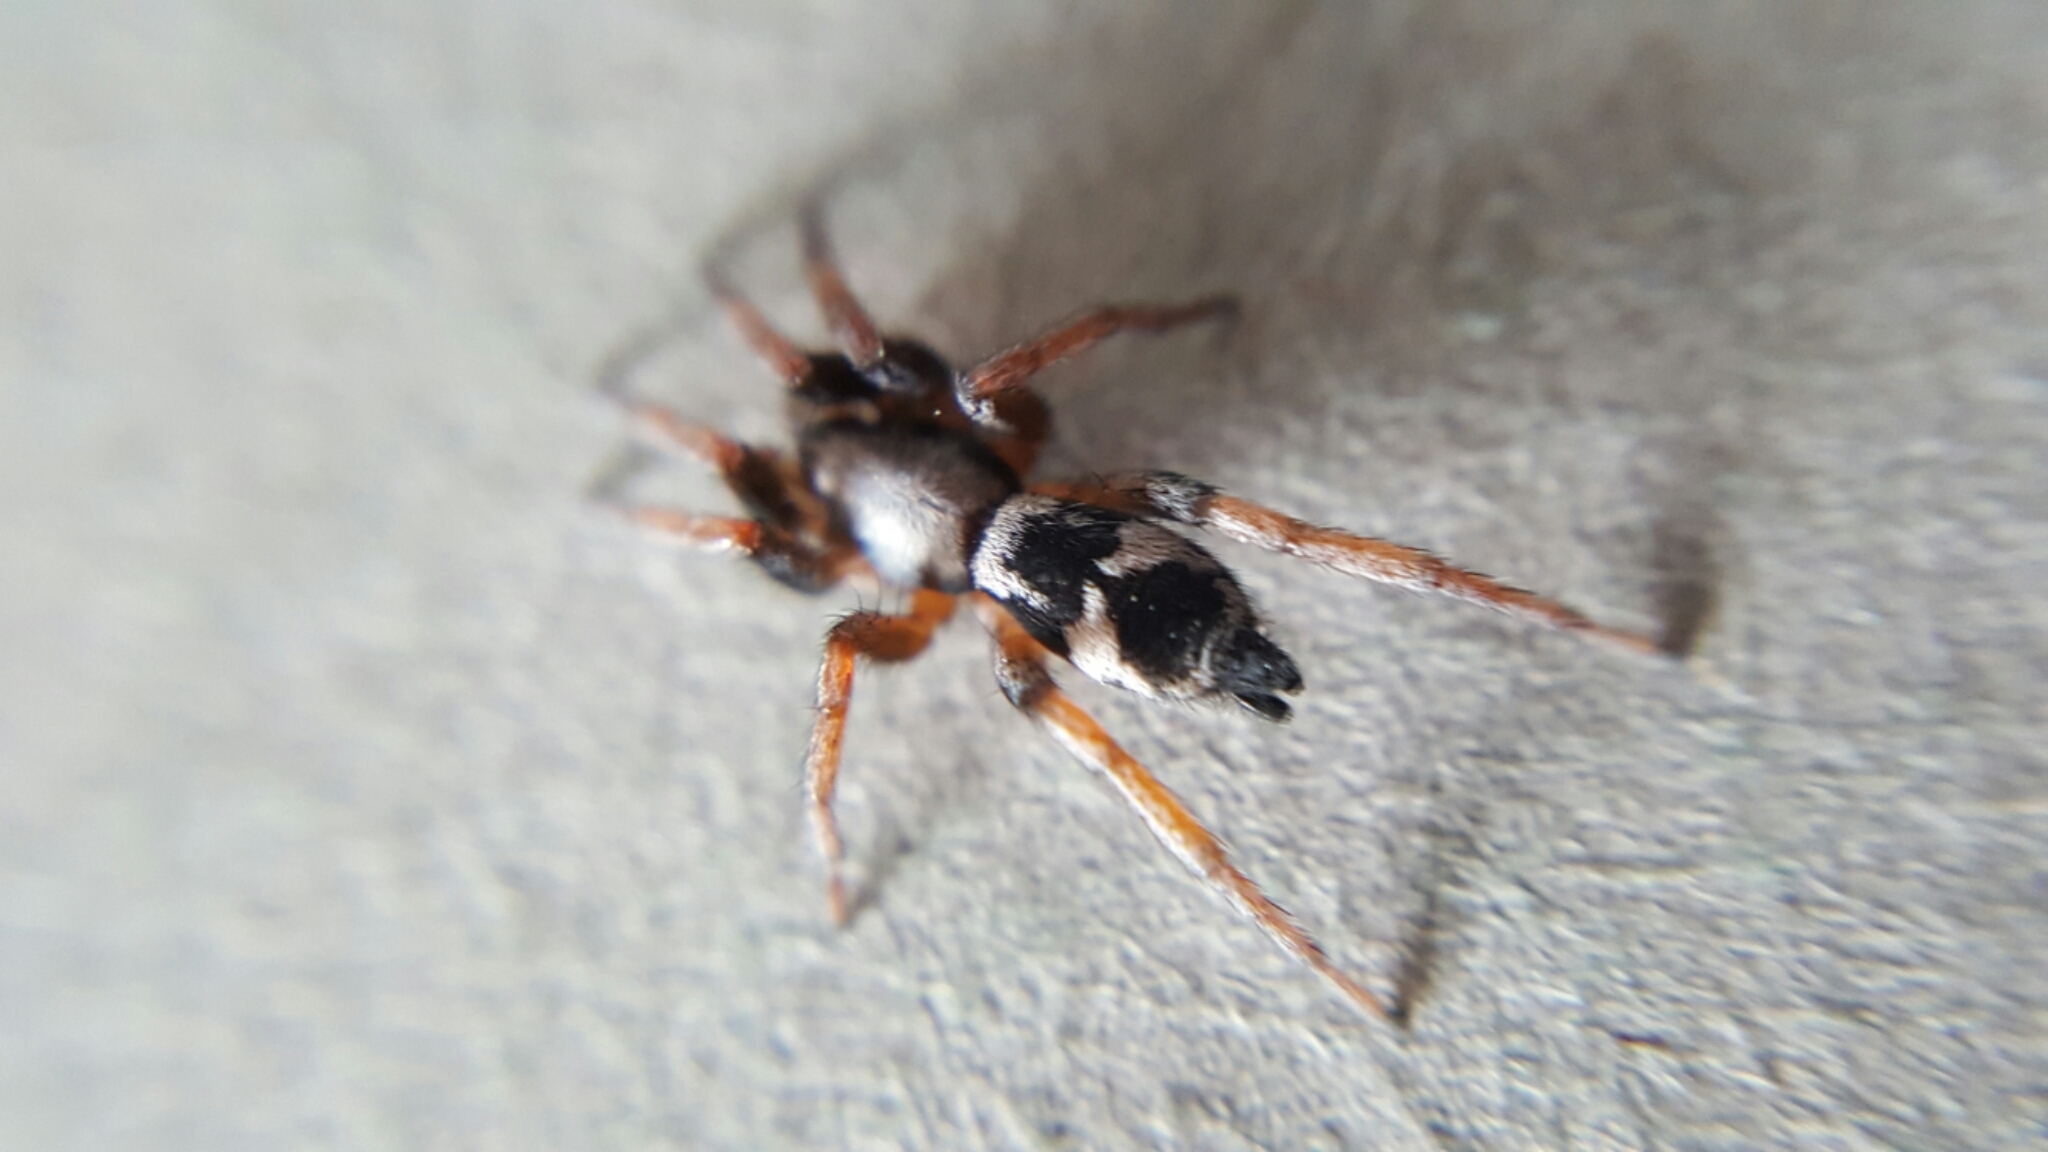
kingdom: Animalia
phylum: Arthropoda
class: Arachnida
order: Araneae
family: Gnaphosidae
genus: Sergiolus
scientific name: Sergiolus montanus
